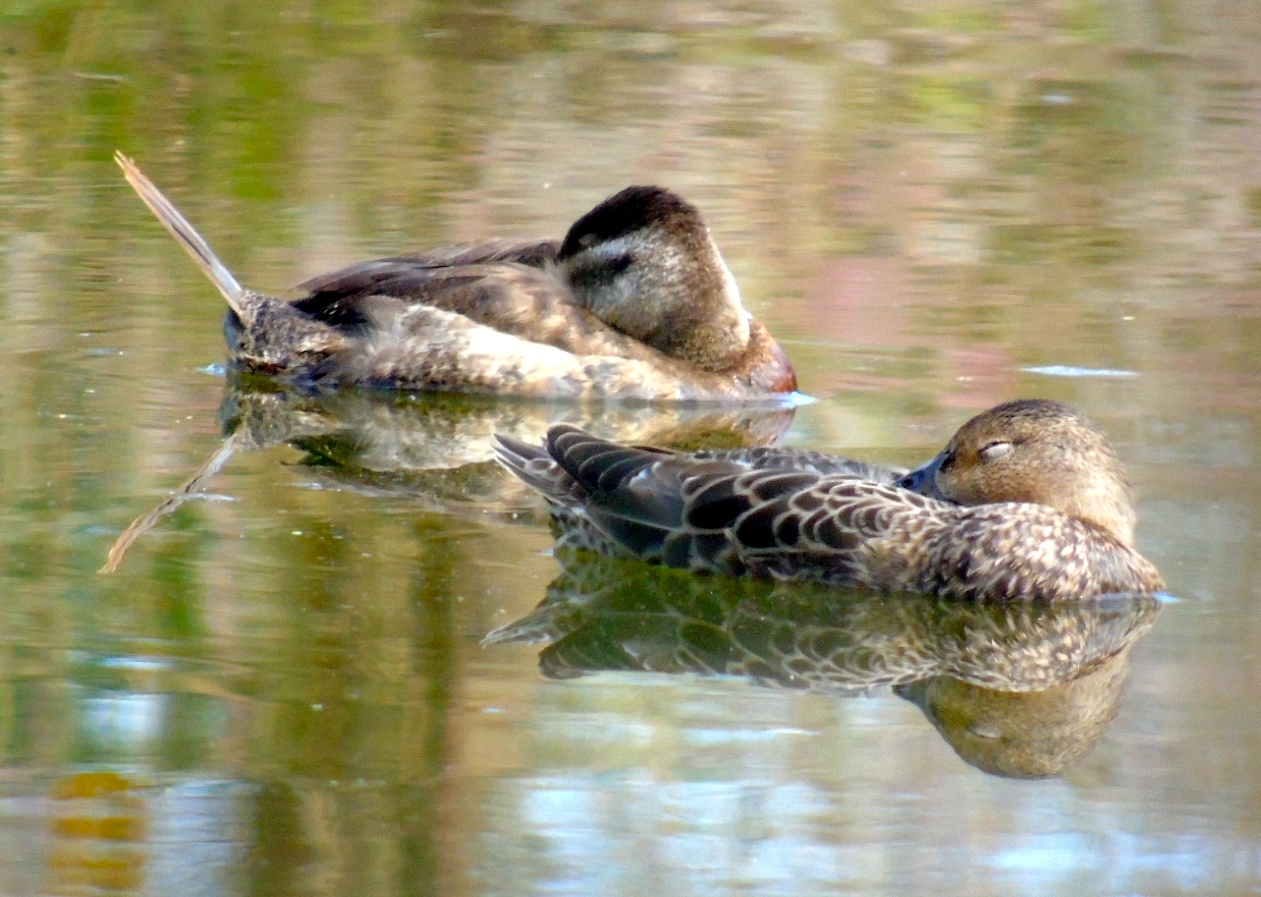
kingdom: Animalia
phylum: Chordata
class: Aves
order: Anseriformes
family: Anatidae
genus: Oxyura
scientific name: Oxyura jamaicensis
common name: Ruddy duck
